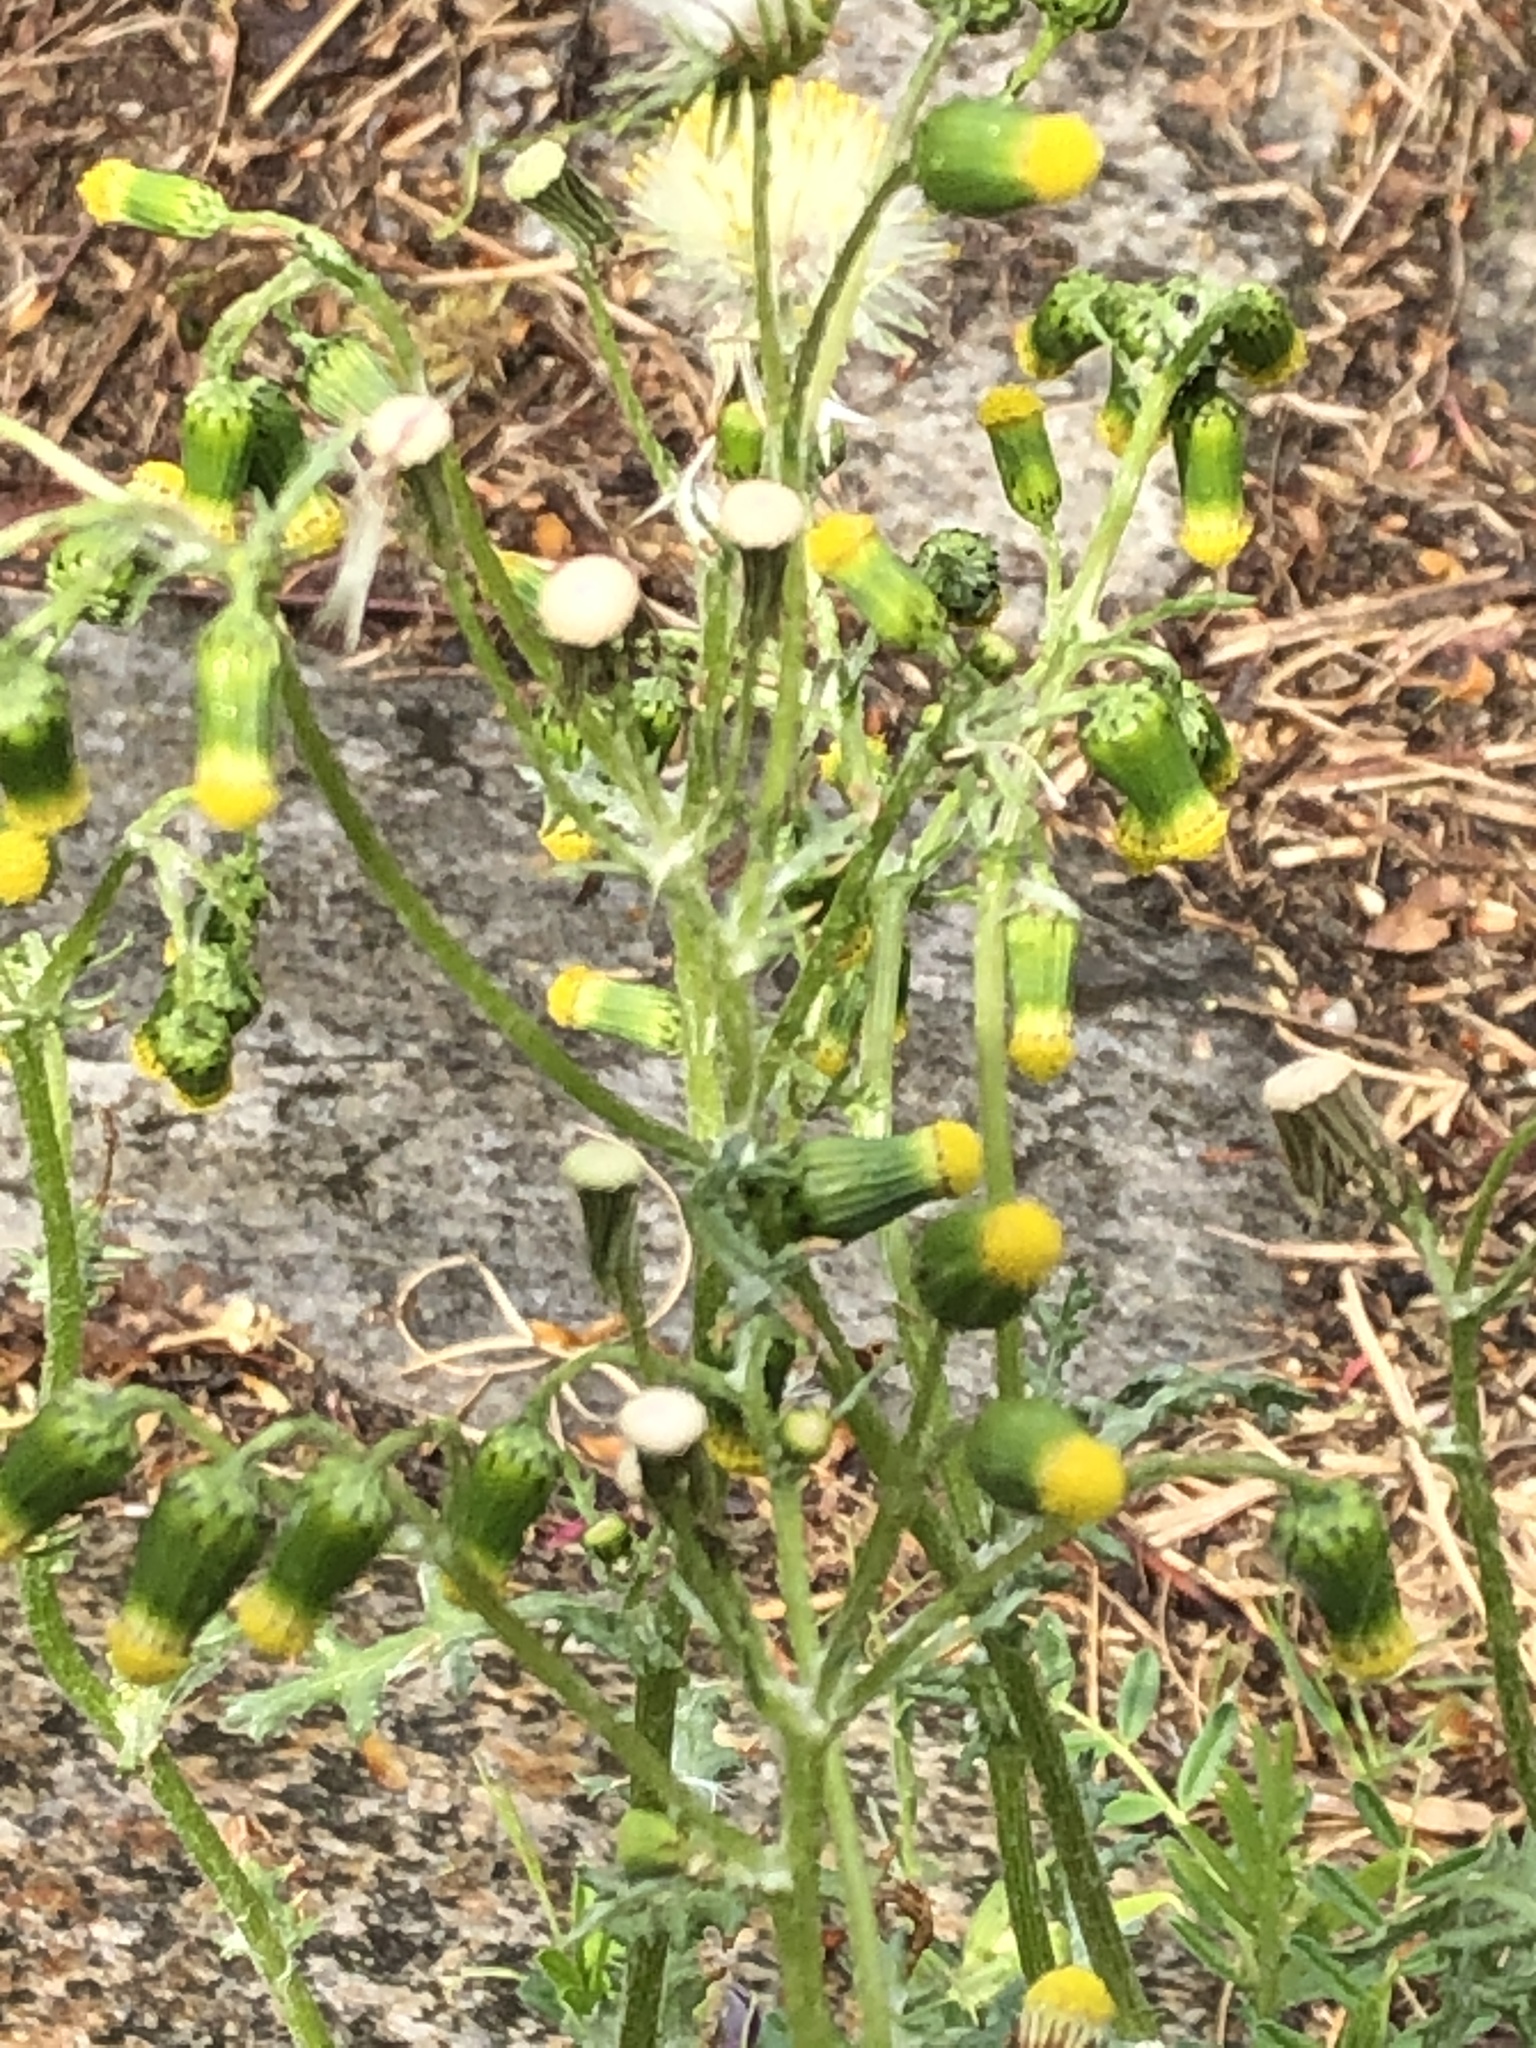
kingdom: Plantae
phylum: Tracheophyta
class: Magnoliopsida
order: Asterales
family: Asteraceae
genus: Senecio
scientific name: Senecio vulgaris
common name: Old-man-in-the-spring
